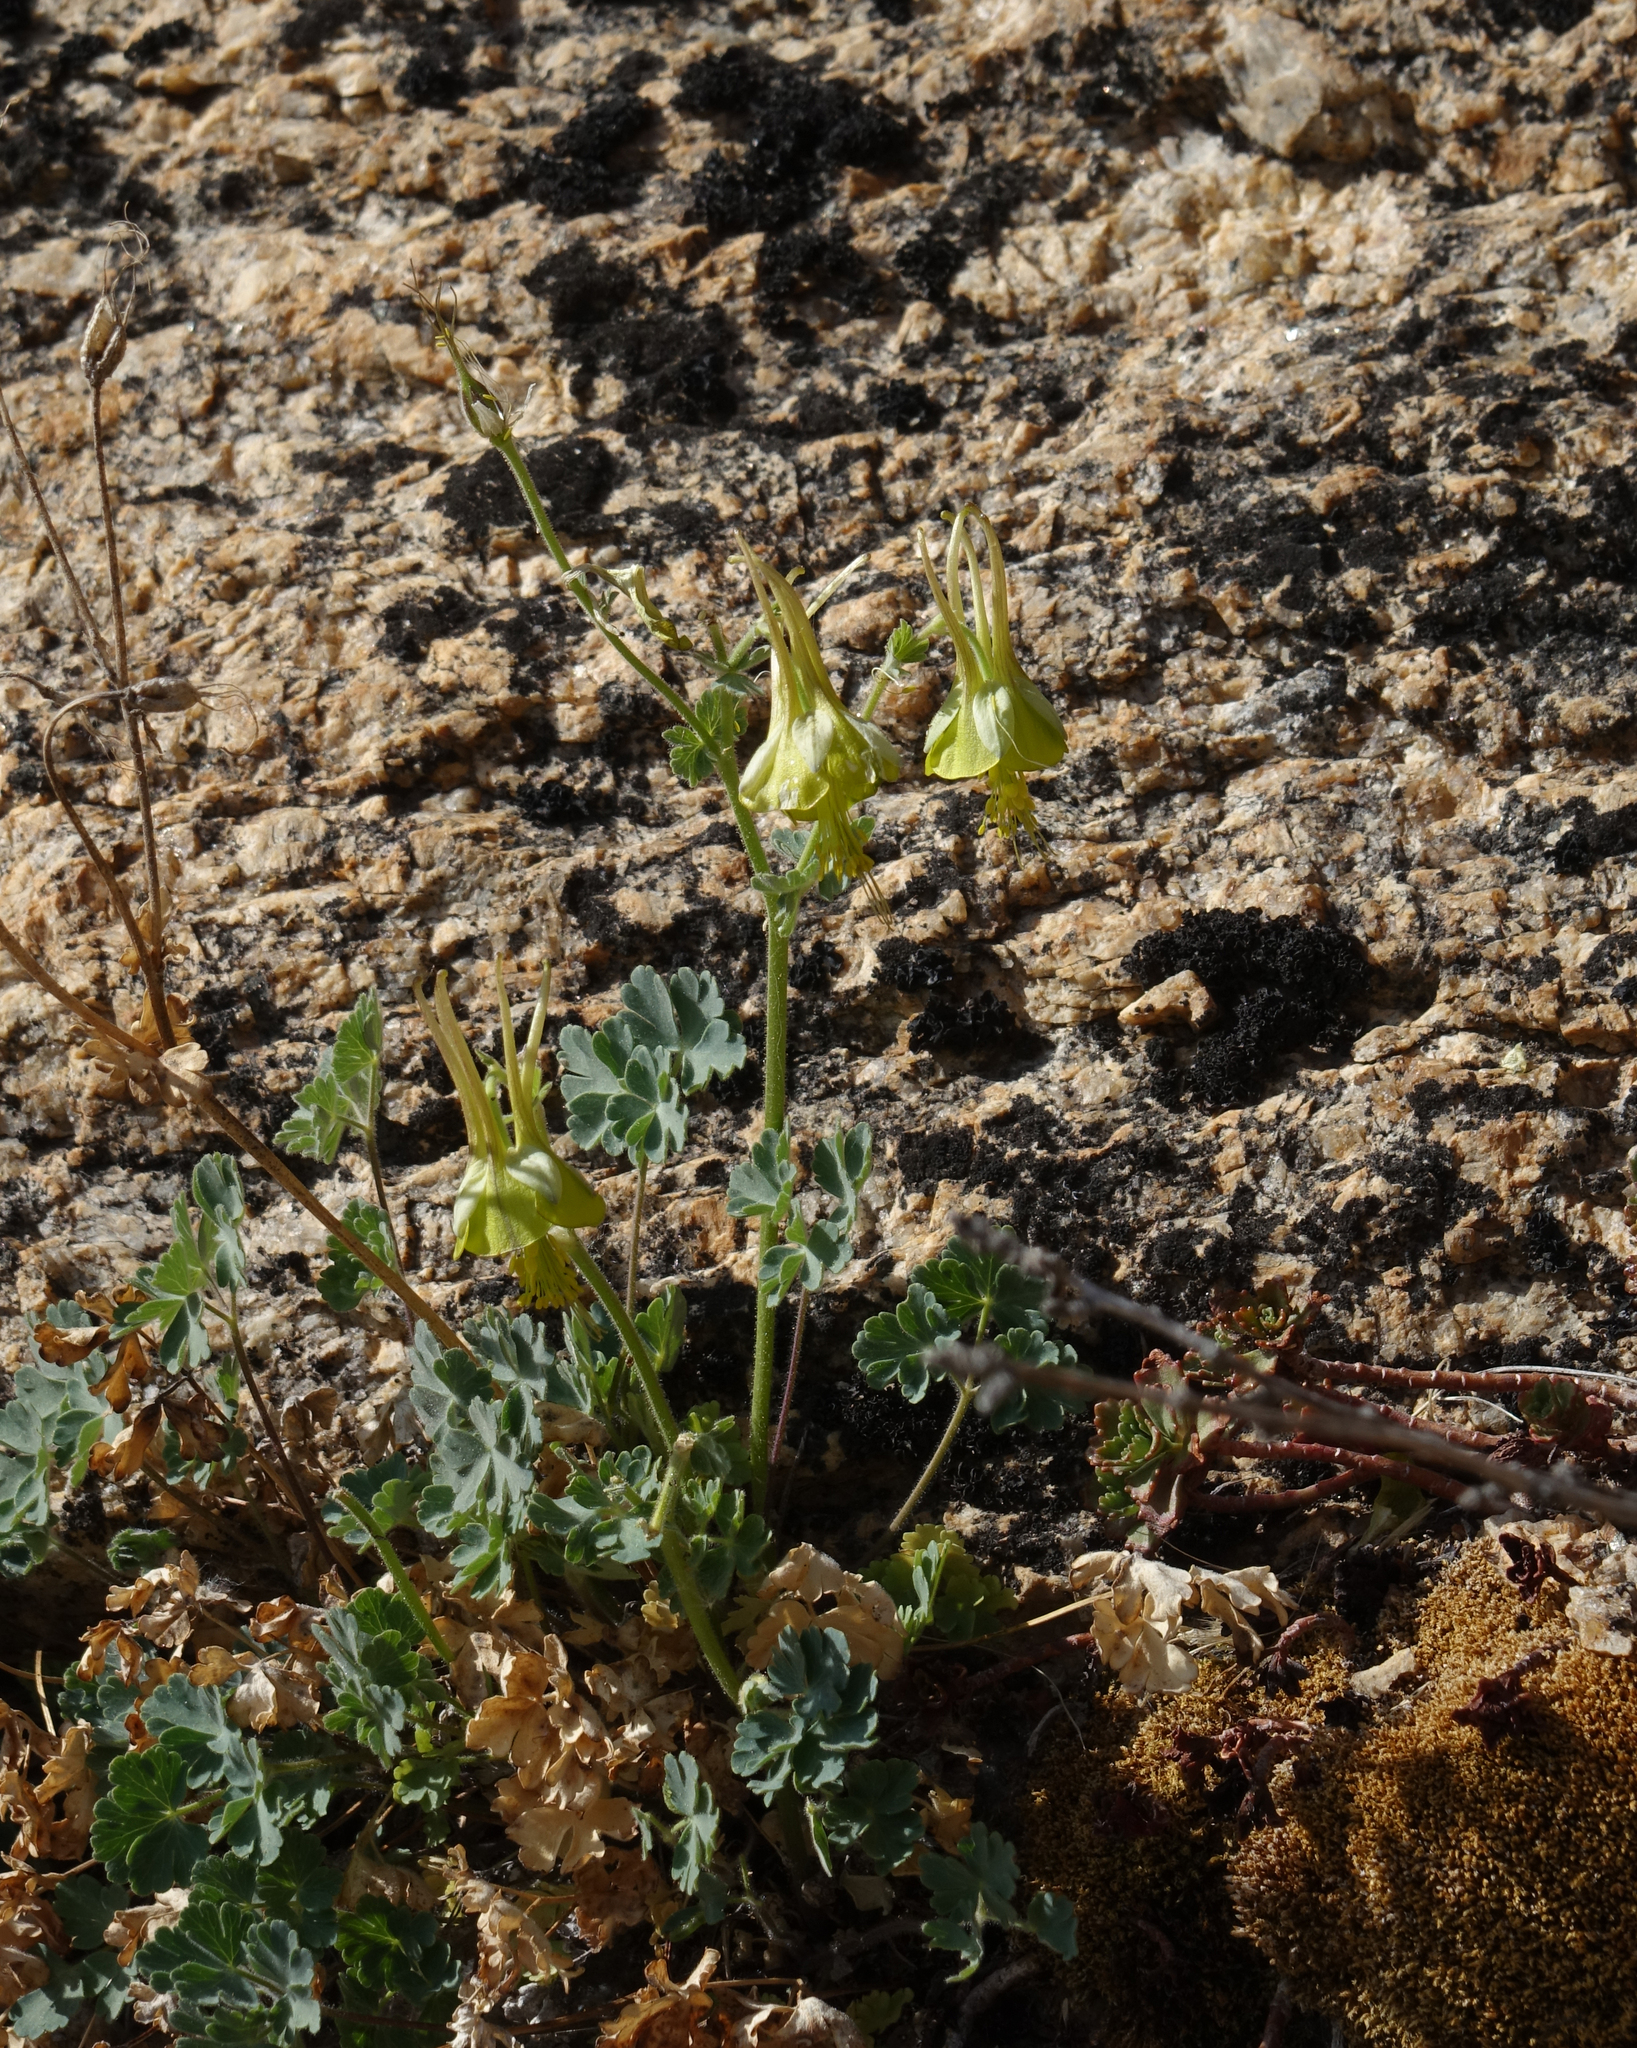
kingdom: Plantae
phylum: Tracheophyta
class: Magnoliopsida
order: Ranunculales
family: Ranunculaceae
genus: Aquilegia
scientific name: Aquilegia viridiflora
